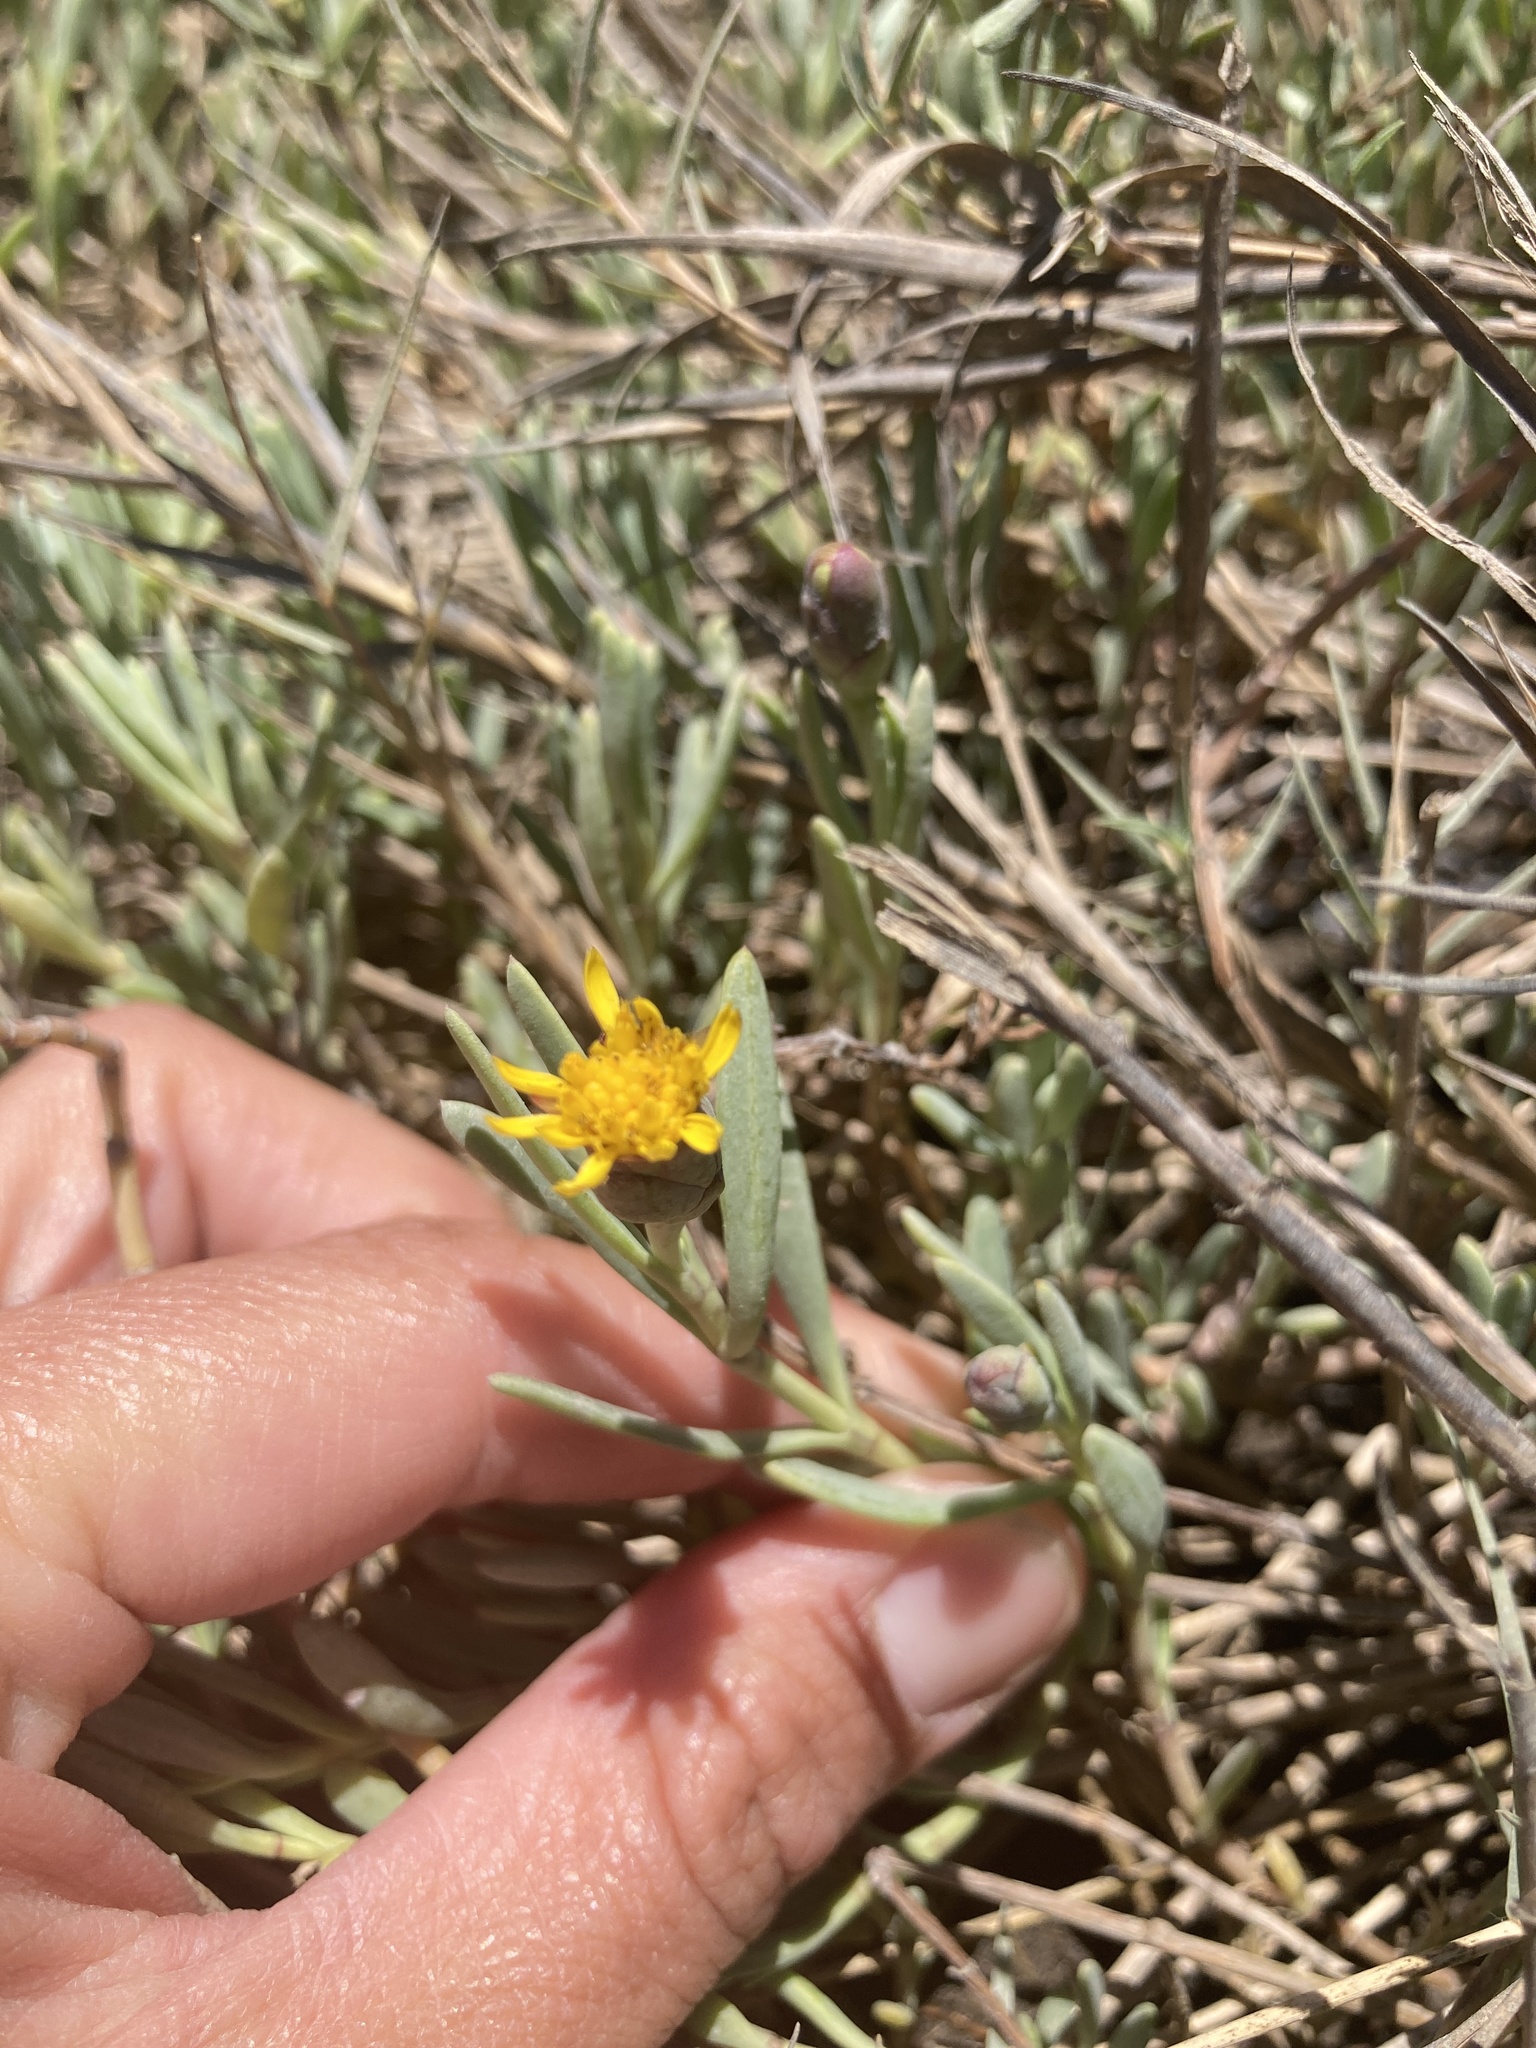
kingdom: Plantae
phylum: Tracheophyta
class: Magnoliopsida
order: Asterales
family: Asteraceae
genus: Jaumea
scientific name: Jaumea carnosa
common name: Fleshy jaumea
